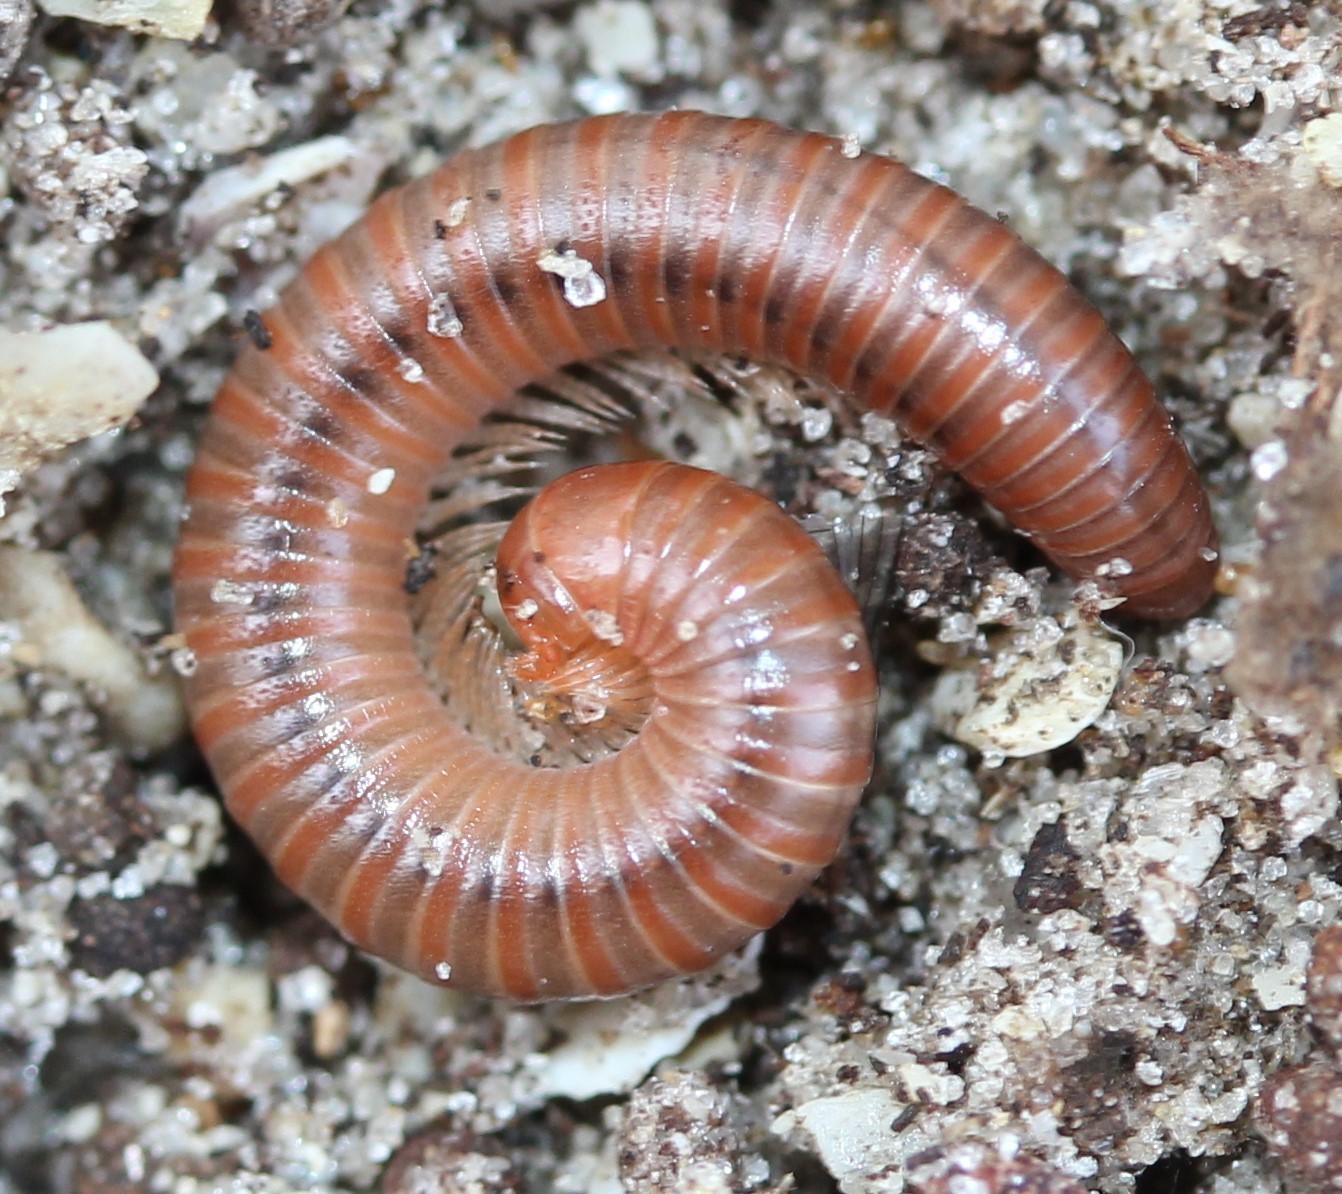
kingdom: Animalia
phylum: Arthropoda
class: Diplopoda
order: Spirobolida
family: Pachybolidae
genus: Trigoniulus
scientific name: Trigoniulus corallinus
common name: Millipede
